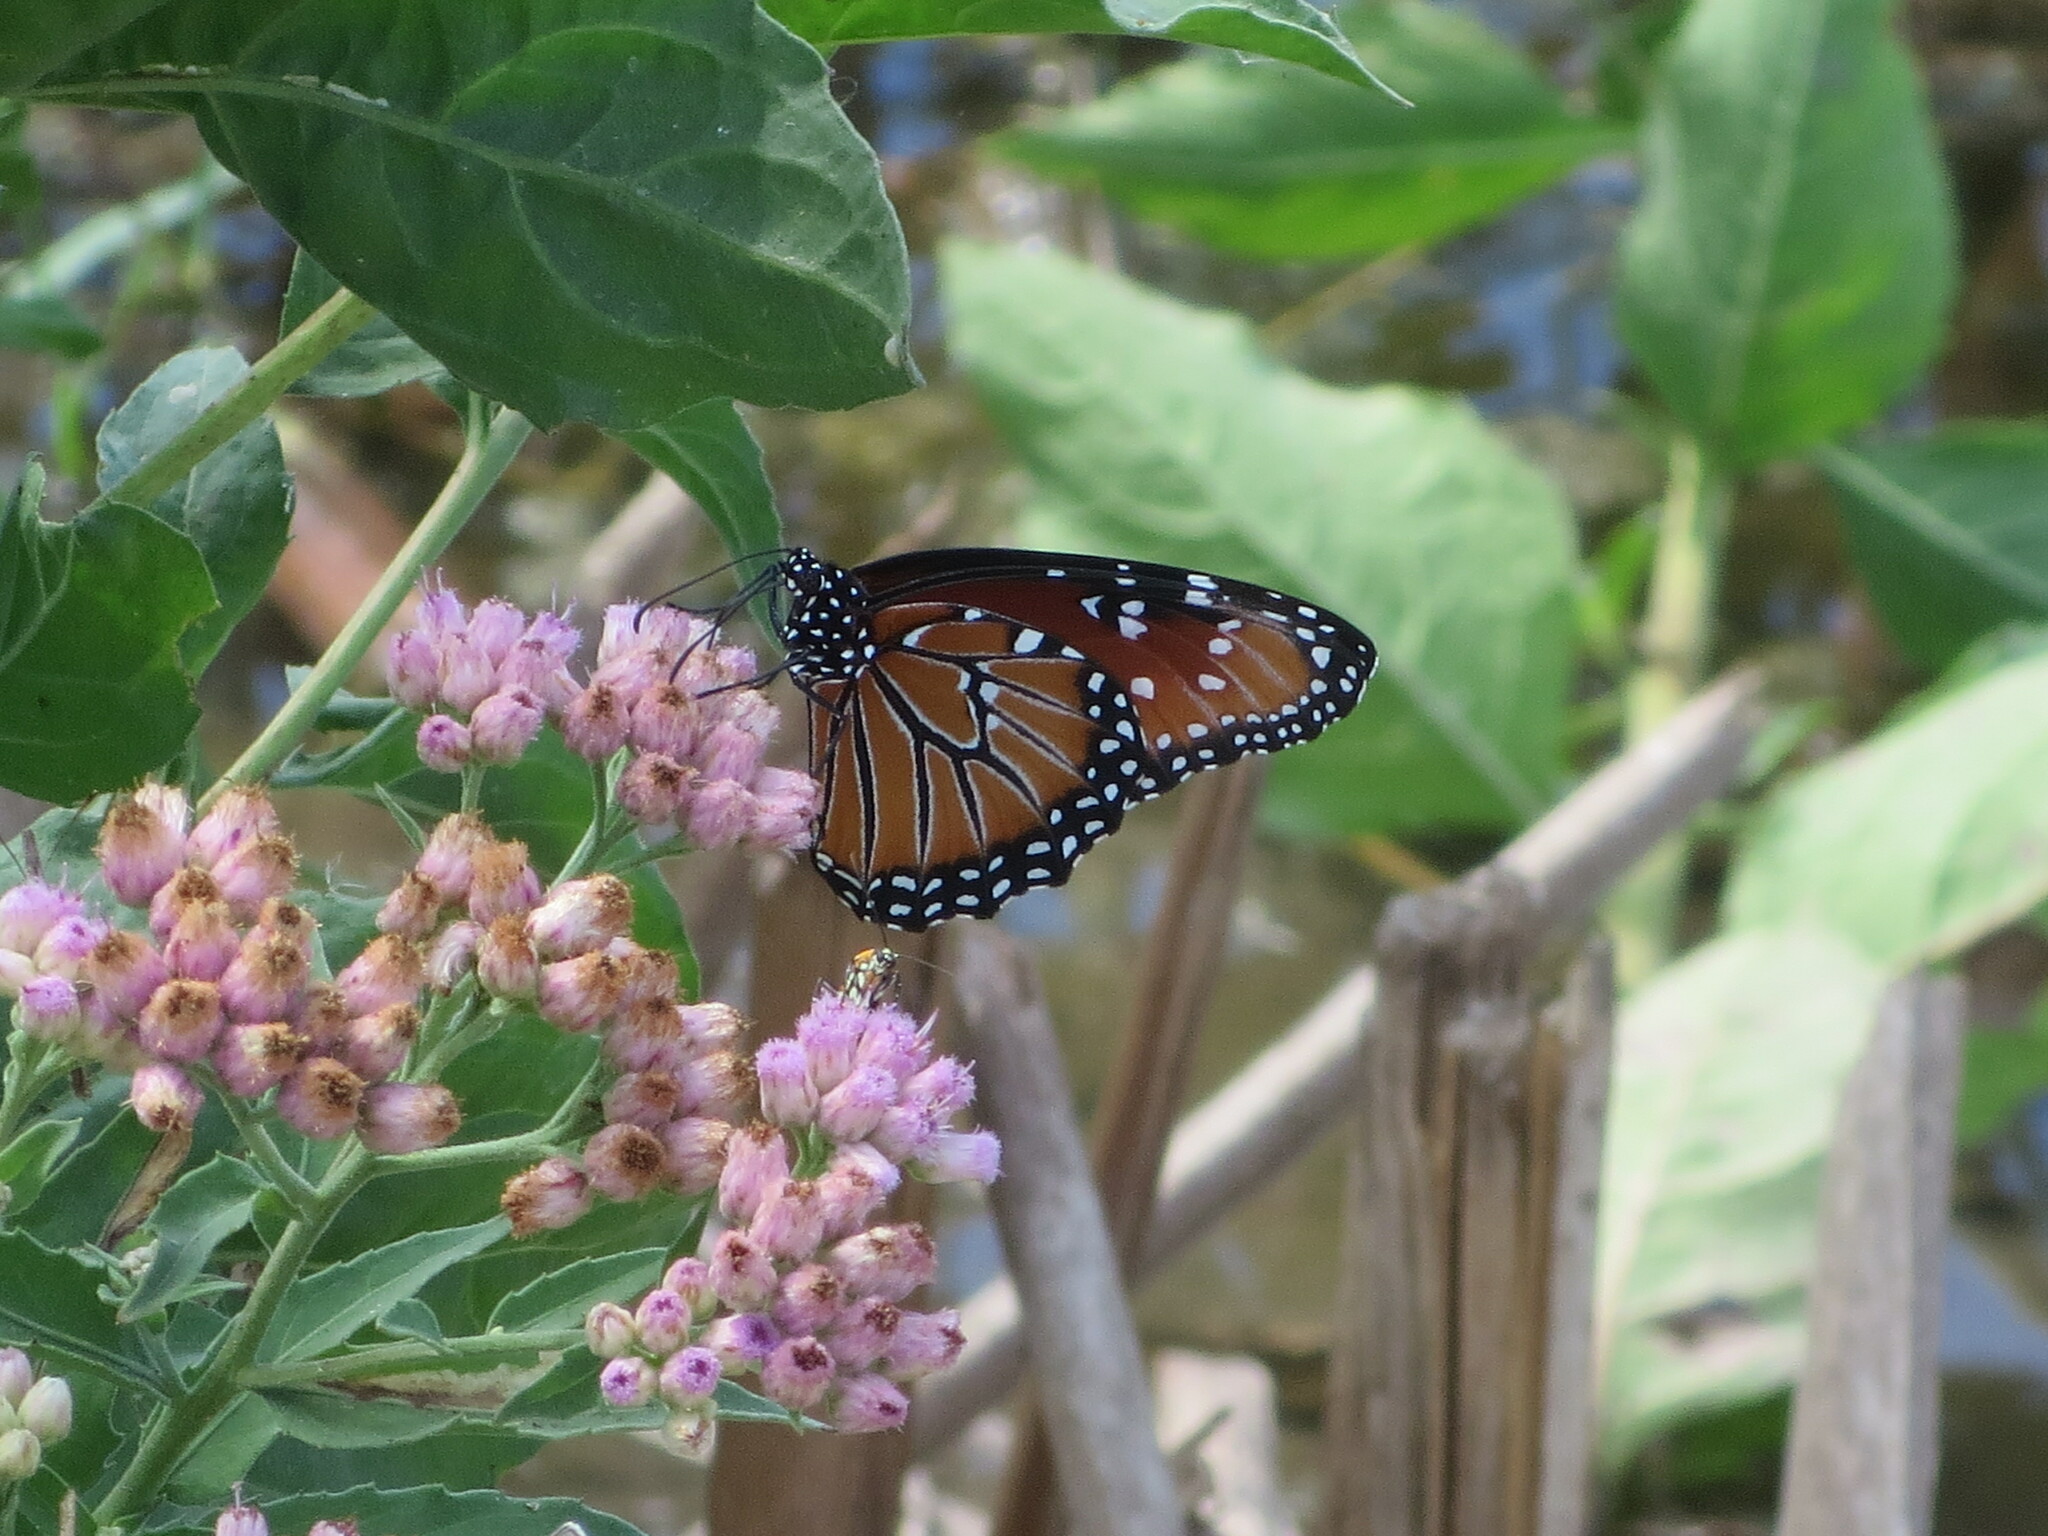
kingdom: Animalia
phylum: Arthropoda
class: Insecta
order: Lepidoptera
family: Nymphalidae
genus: Danaus
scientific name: Danaus gilippus
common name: Queen
